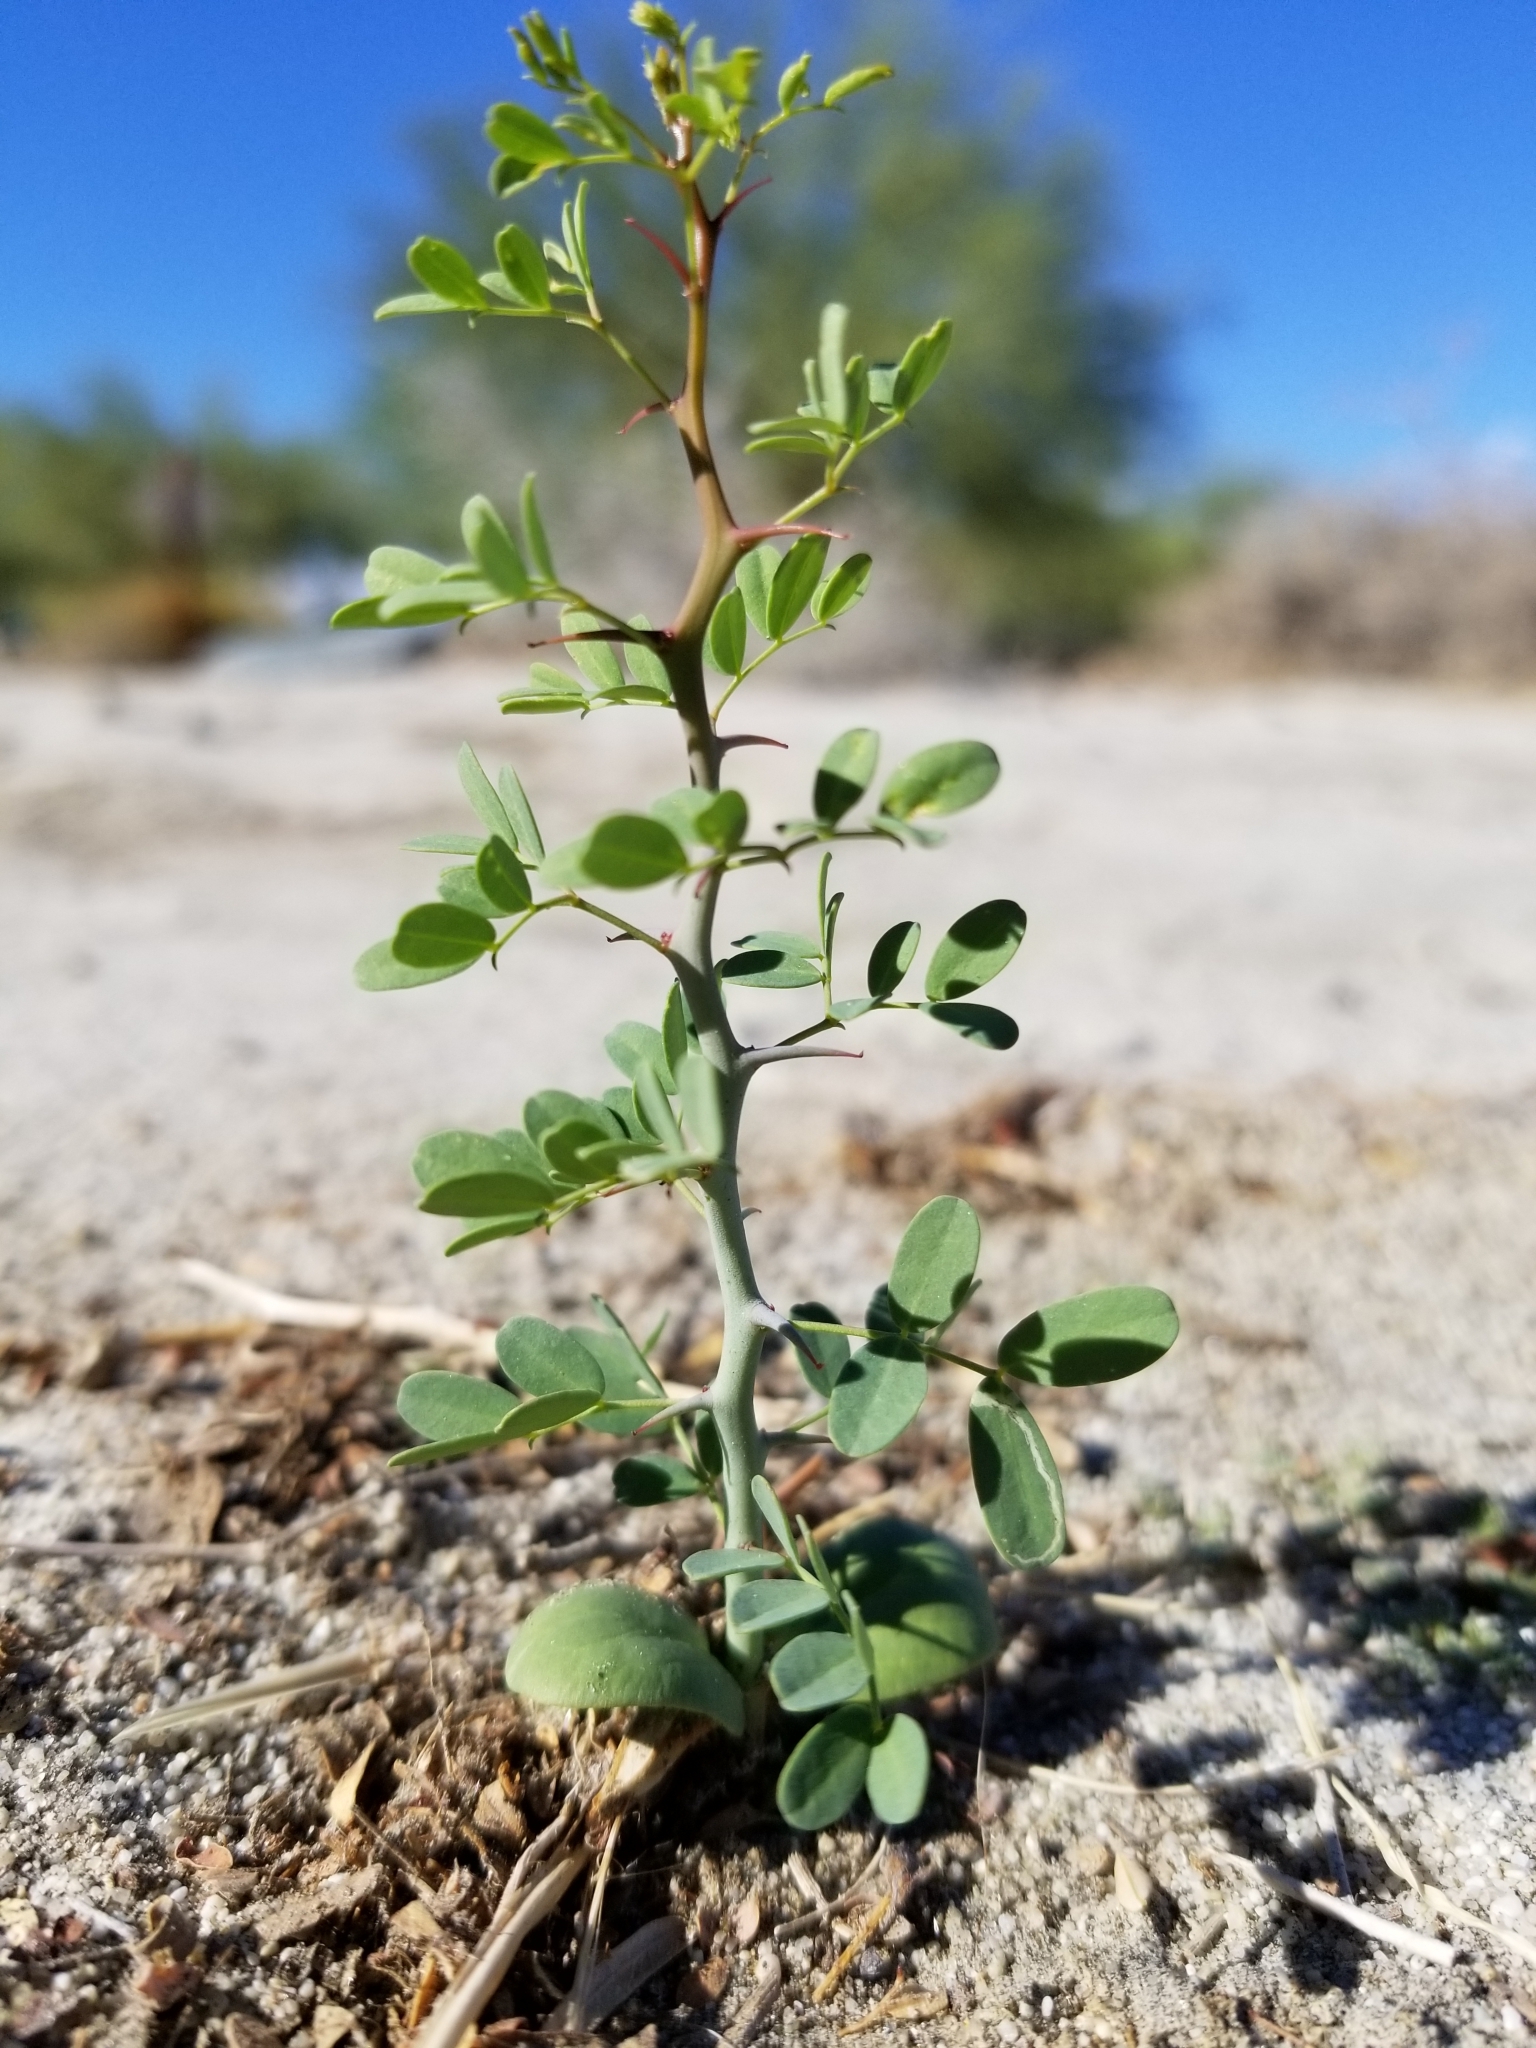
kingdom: Plantae
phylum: Tracheophyta
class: Magnoliopsida
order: Fabales
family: Fabaceae
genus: Senegalia
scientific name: Senegalia greggii
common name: Texas-mimosa
